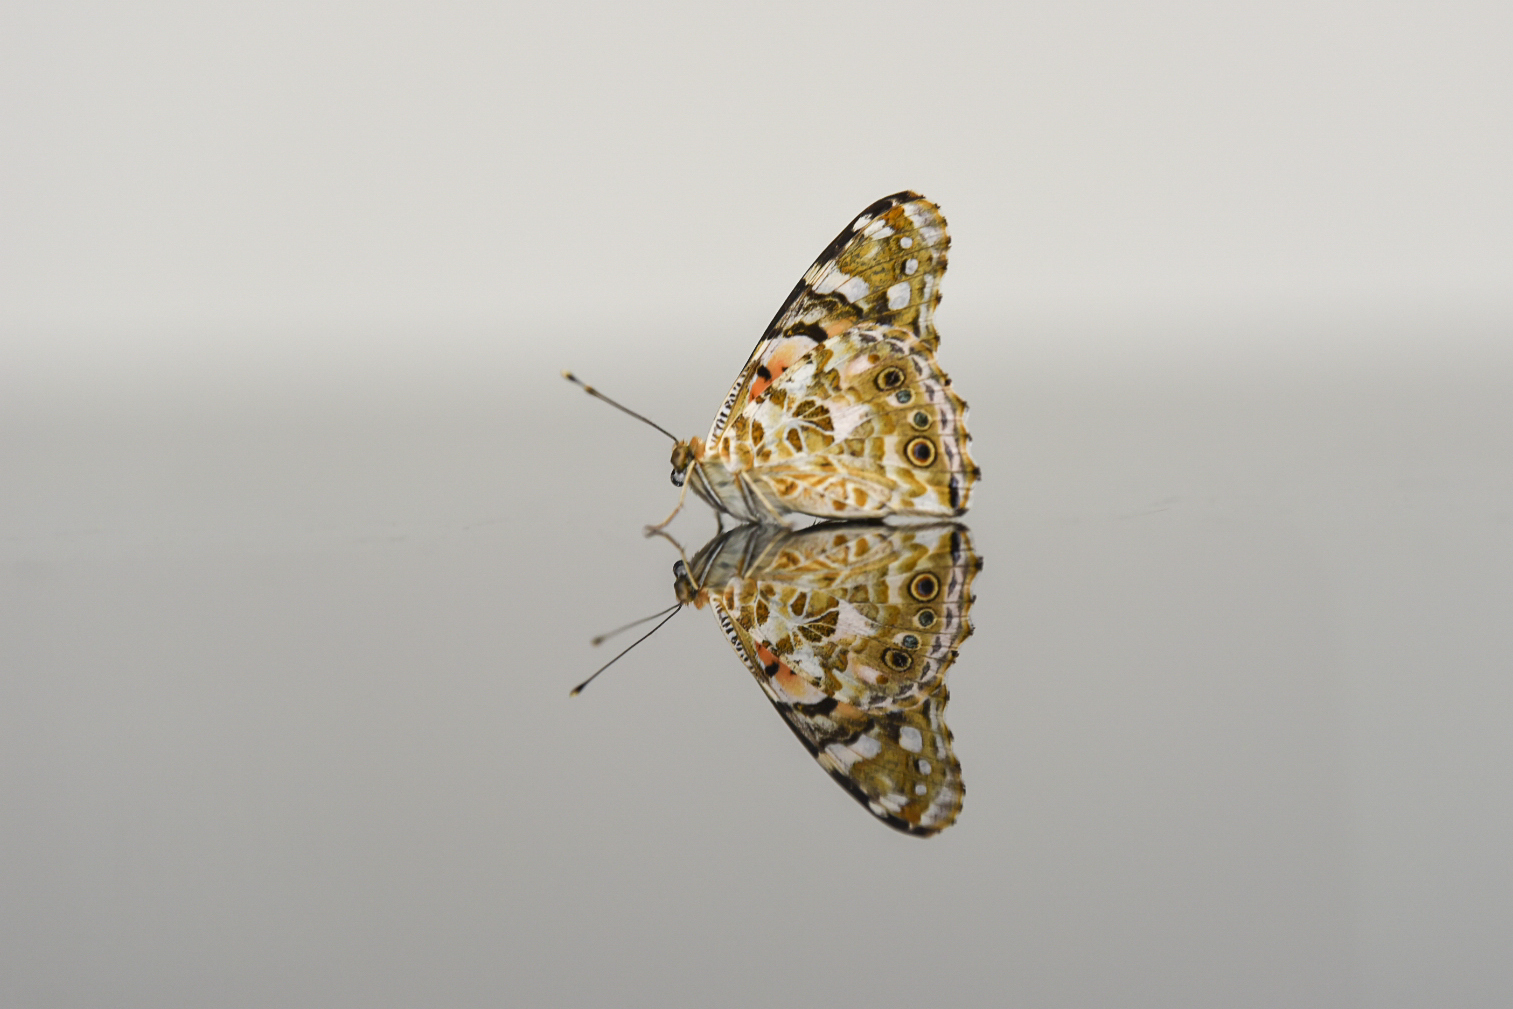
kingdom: Animalia
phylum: Arthropoda
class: Insecta
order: Lepidoptera
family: Nymphalidae
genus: Vanessa
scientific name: Vanessa cardui
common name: Painted lady
